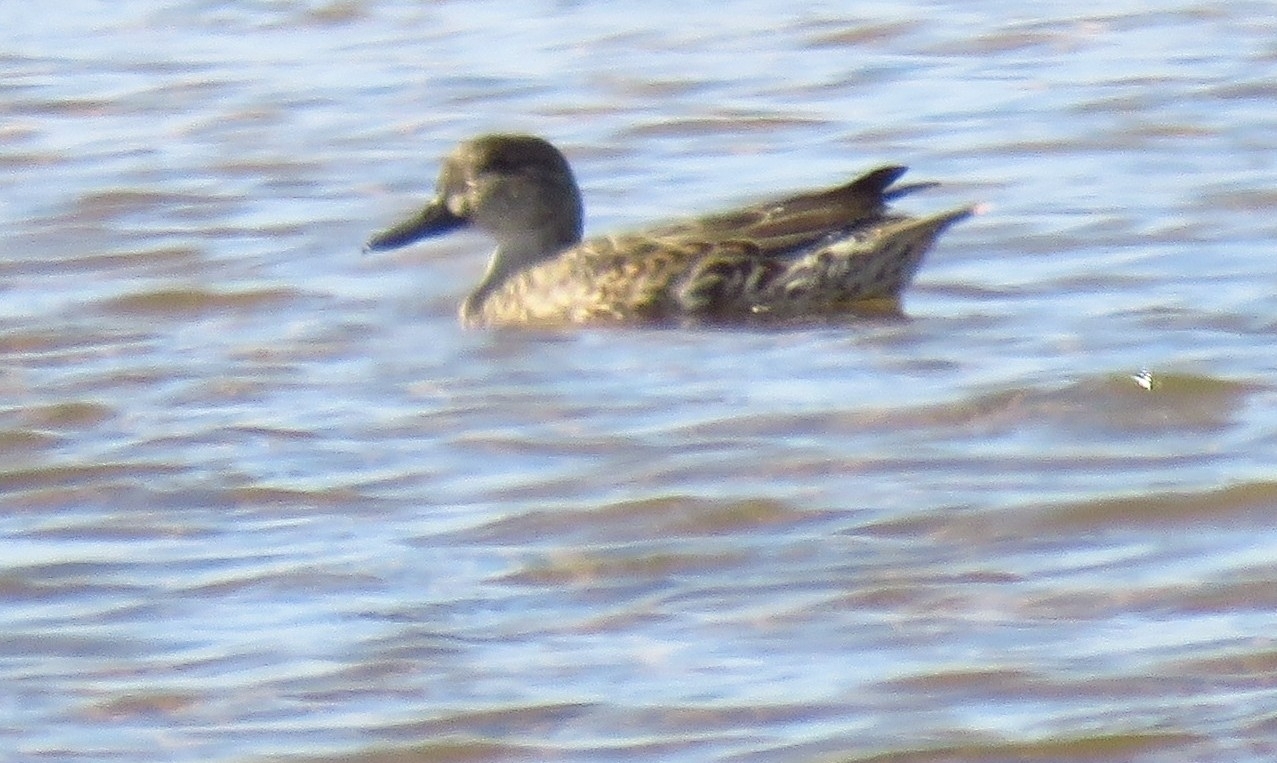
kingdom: Animalia
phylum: Chordata
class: Aves
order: Anseriformes
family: Anatidae
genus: Anas
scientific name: Anas crecca
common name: Eurasian teal
